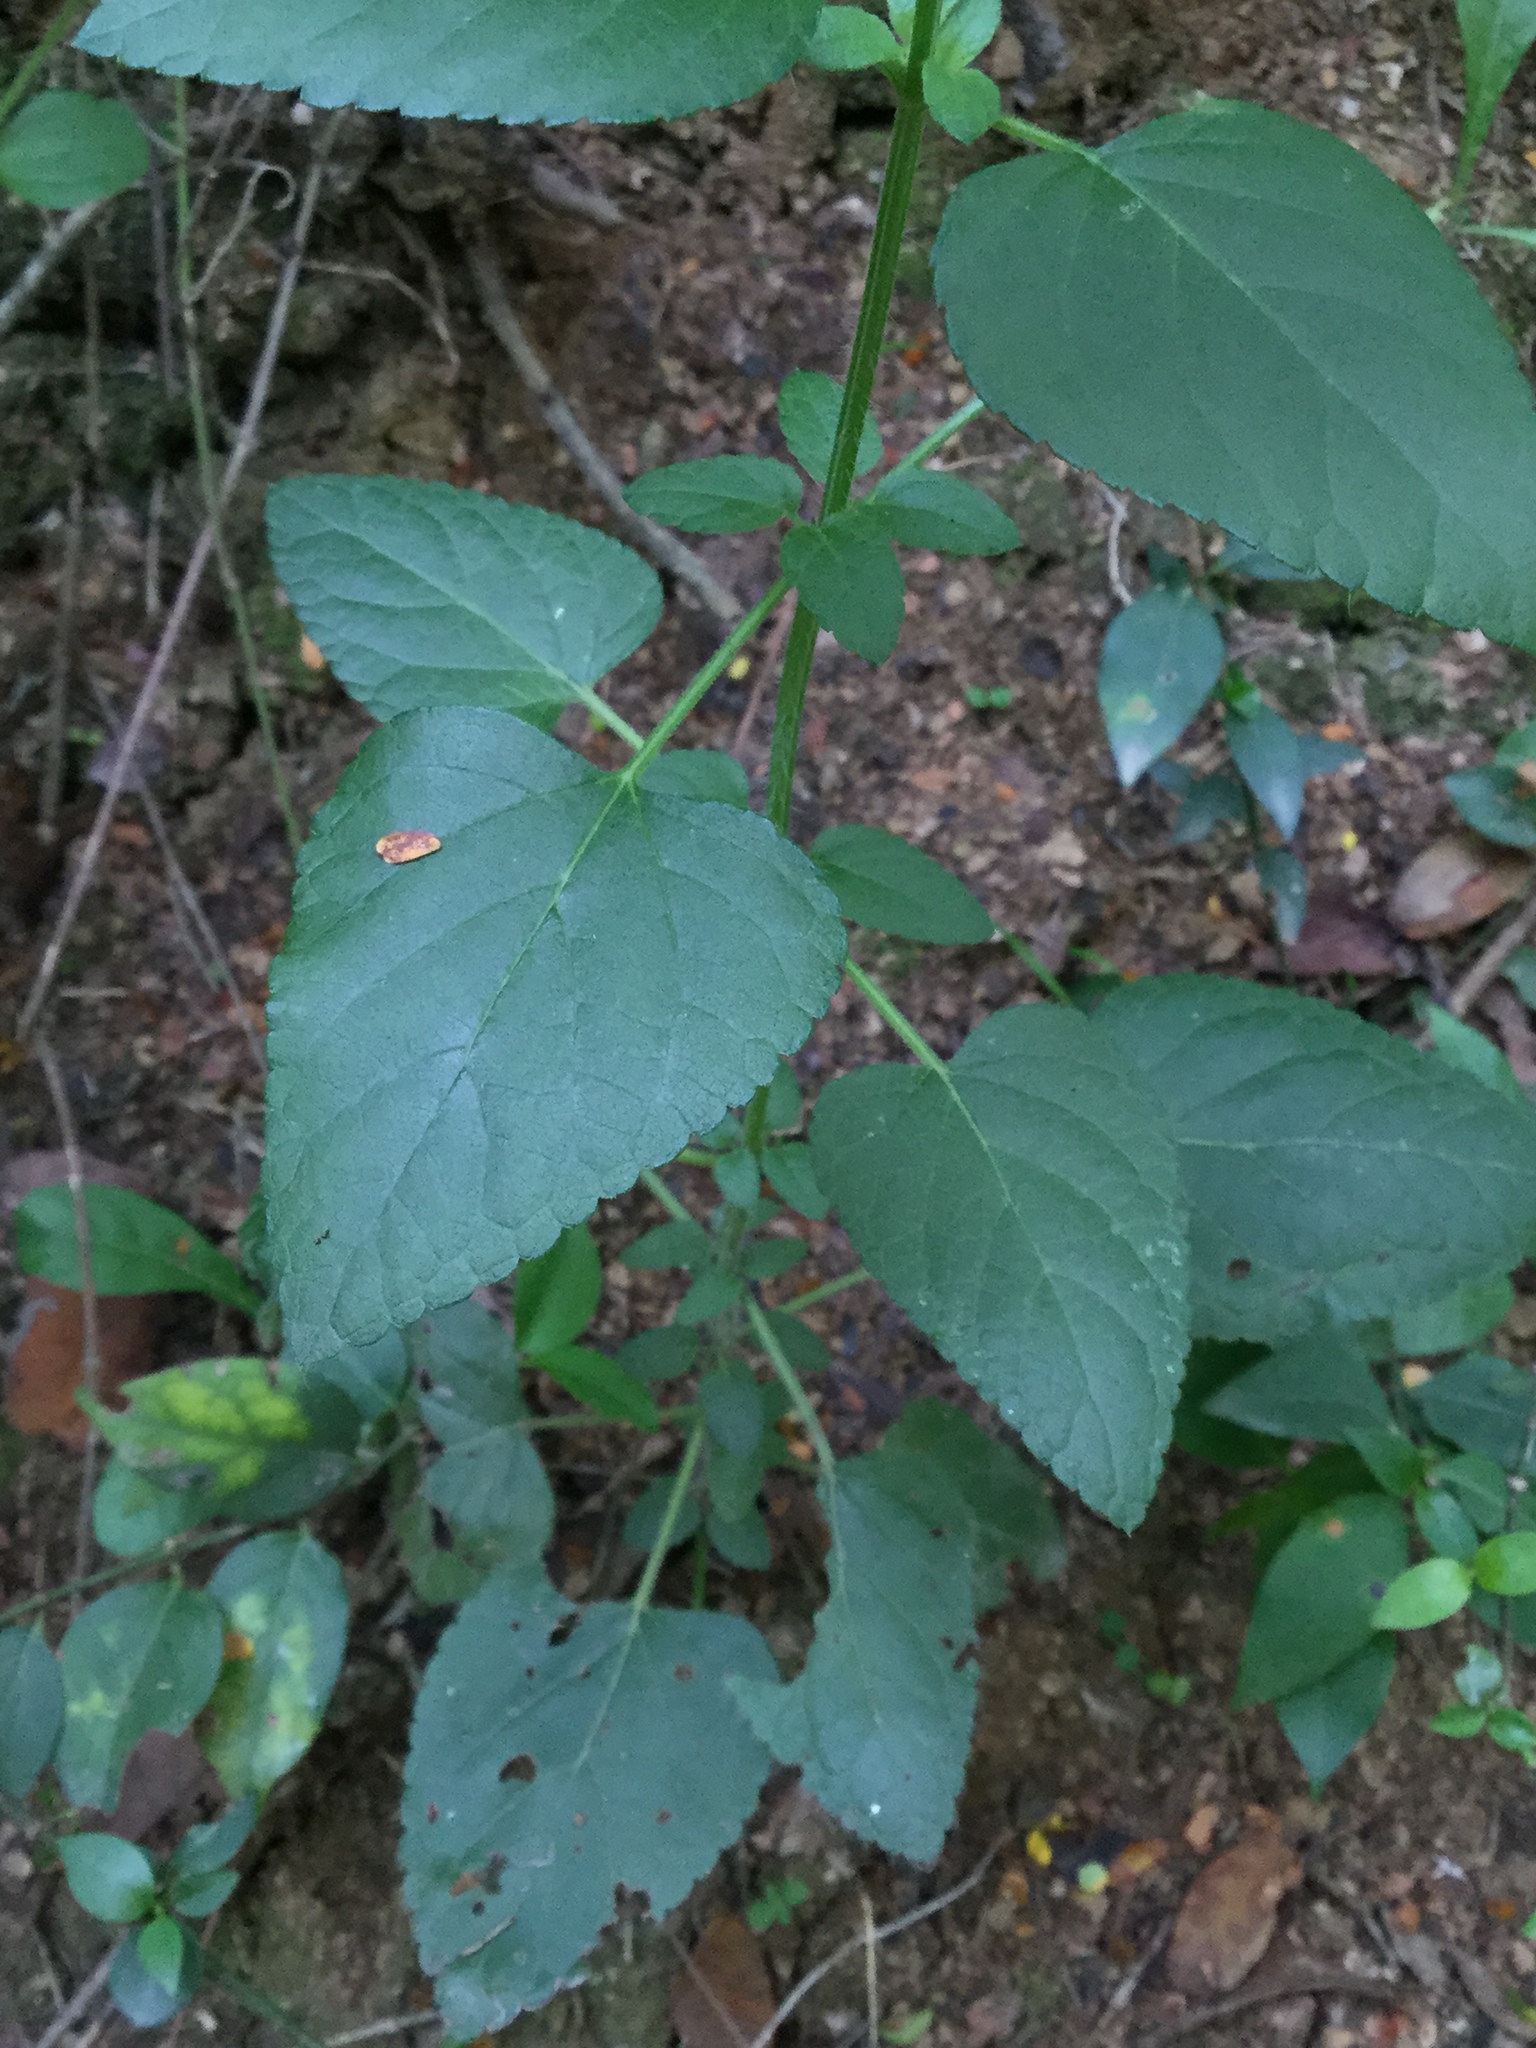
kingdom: Plantae
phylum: Tracheophyta
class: Magnoliopsida
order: Lamiales
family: Lamiaceae
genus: Salvia
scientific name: Salvia coccinea
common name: Blood sage
